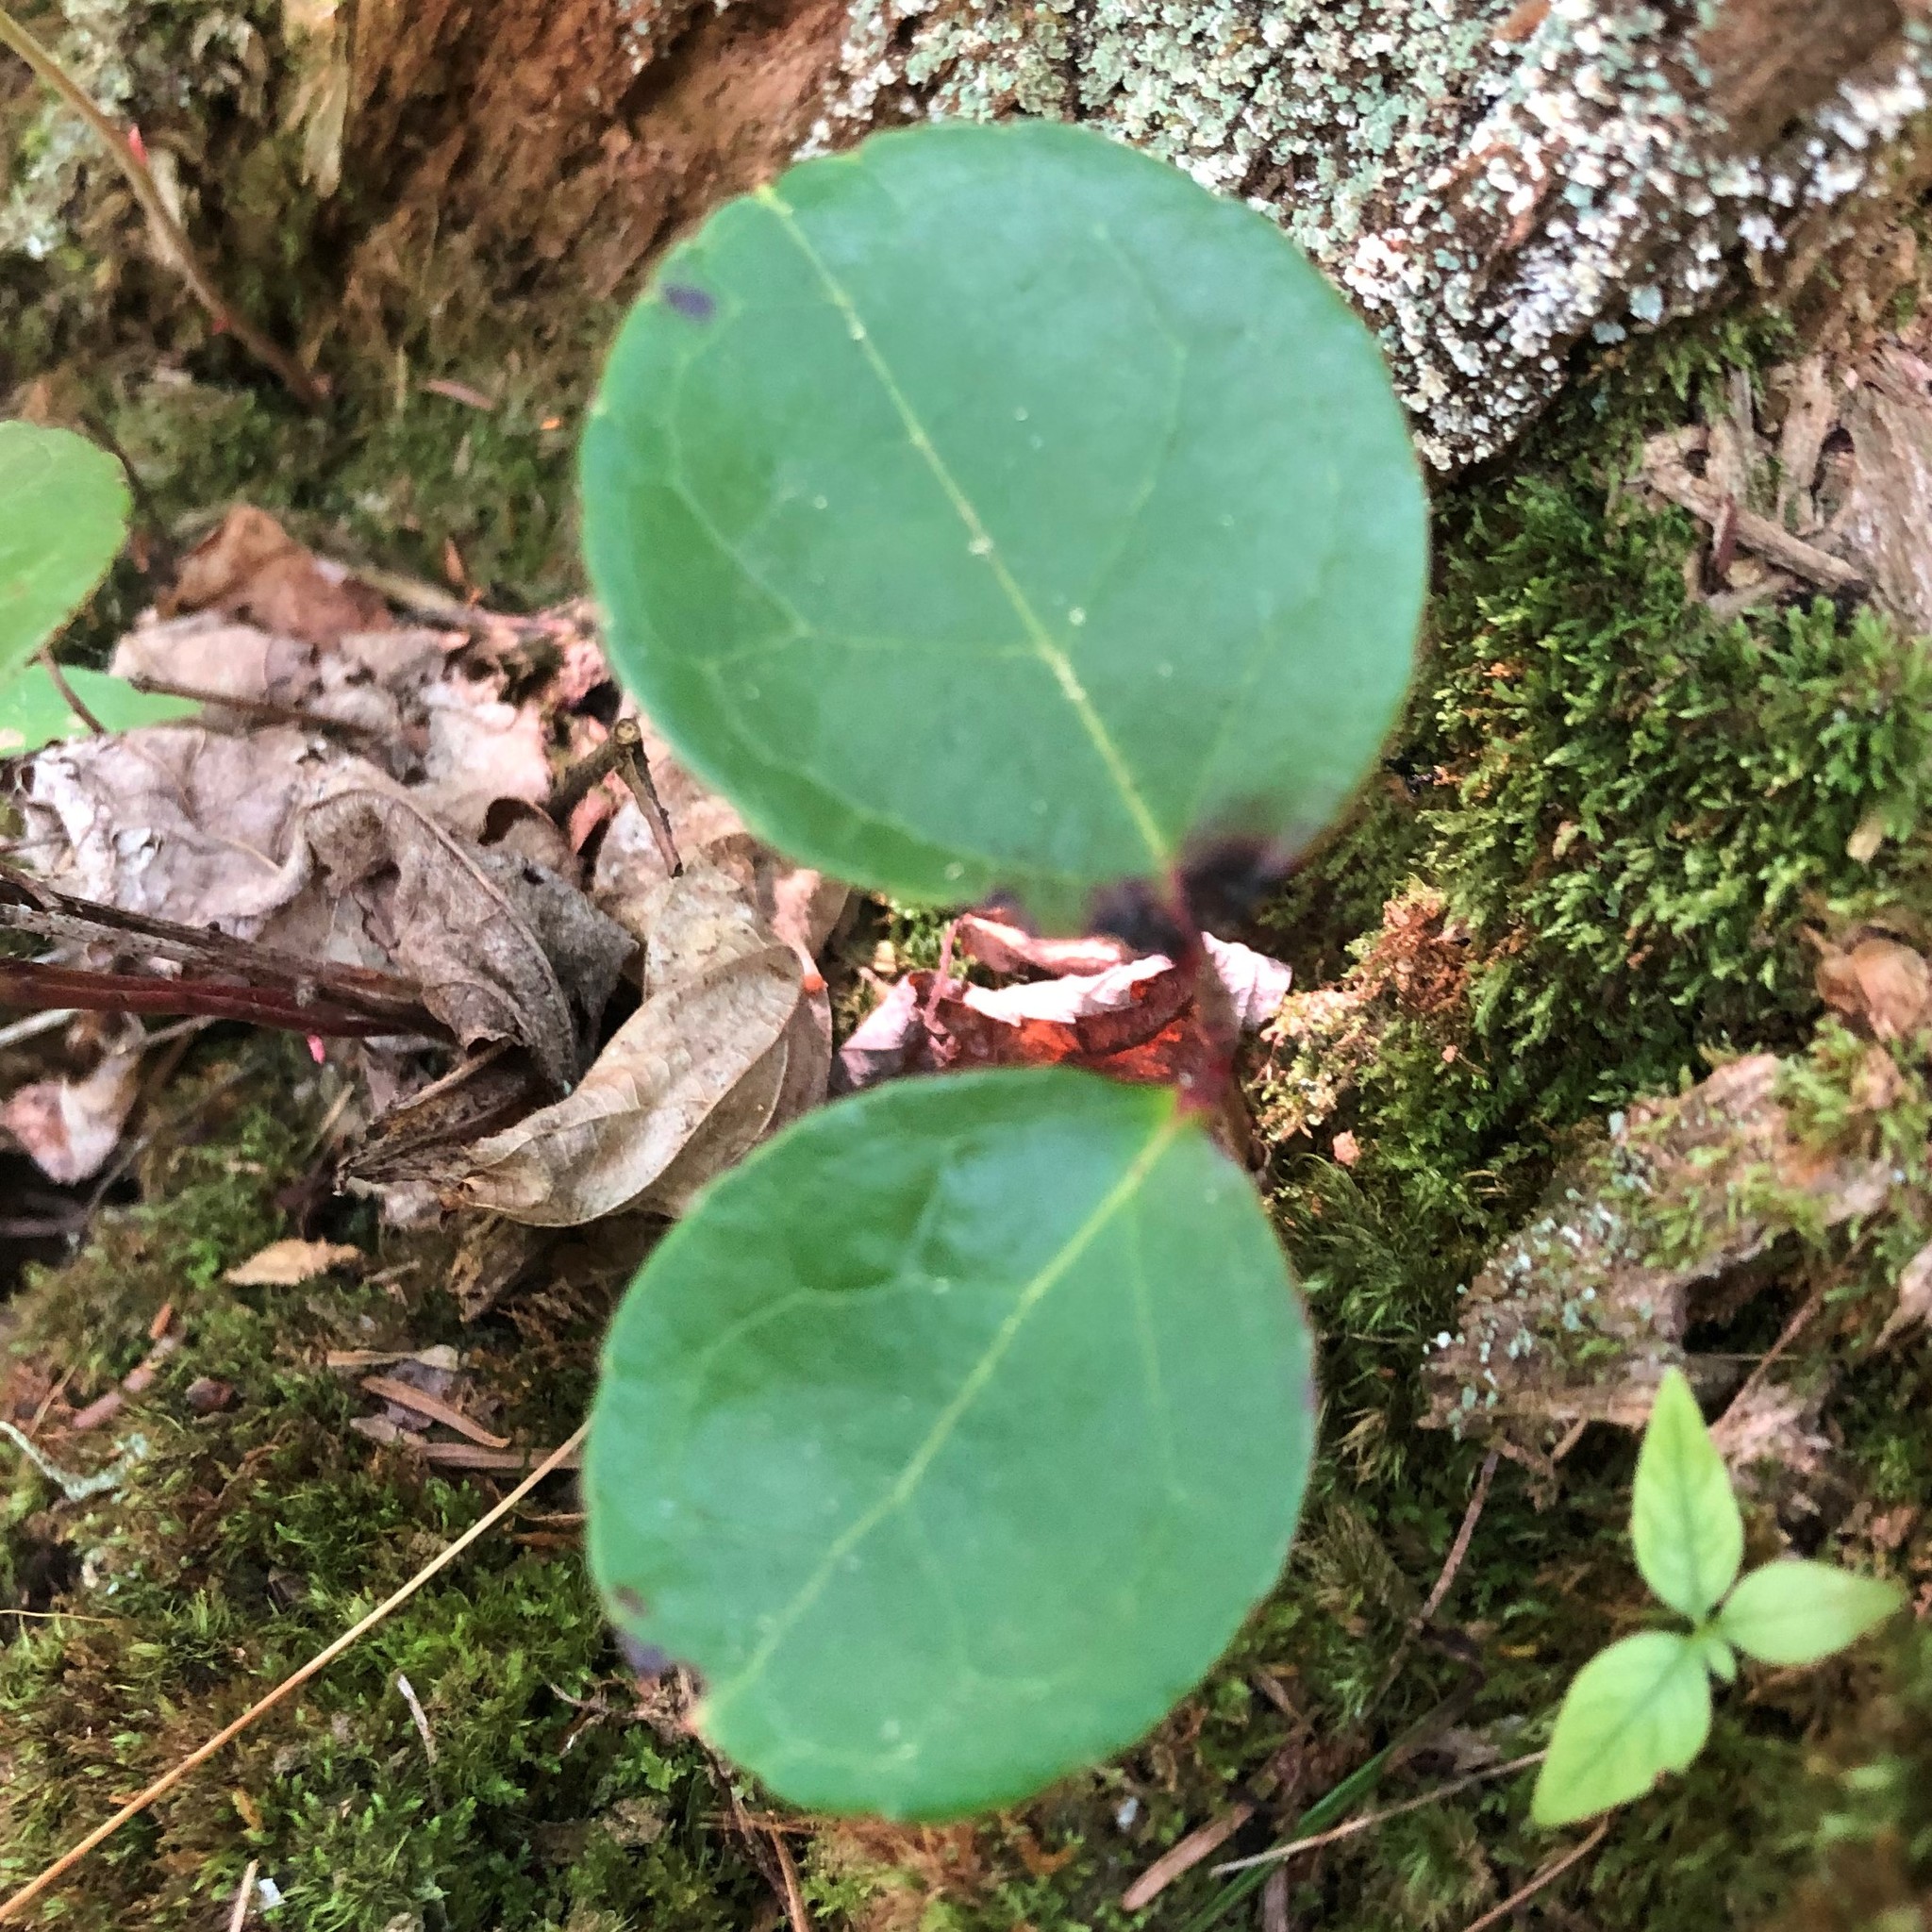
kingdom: Plantae
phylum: Tracheophyta
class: Magnoliopsida
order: Ericales
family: Ericaceae
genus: Gaultheria
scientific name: Gaultheria procumbens
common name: Checkerberry
